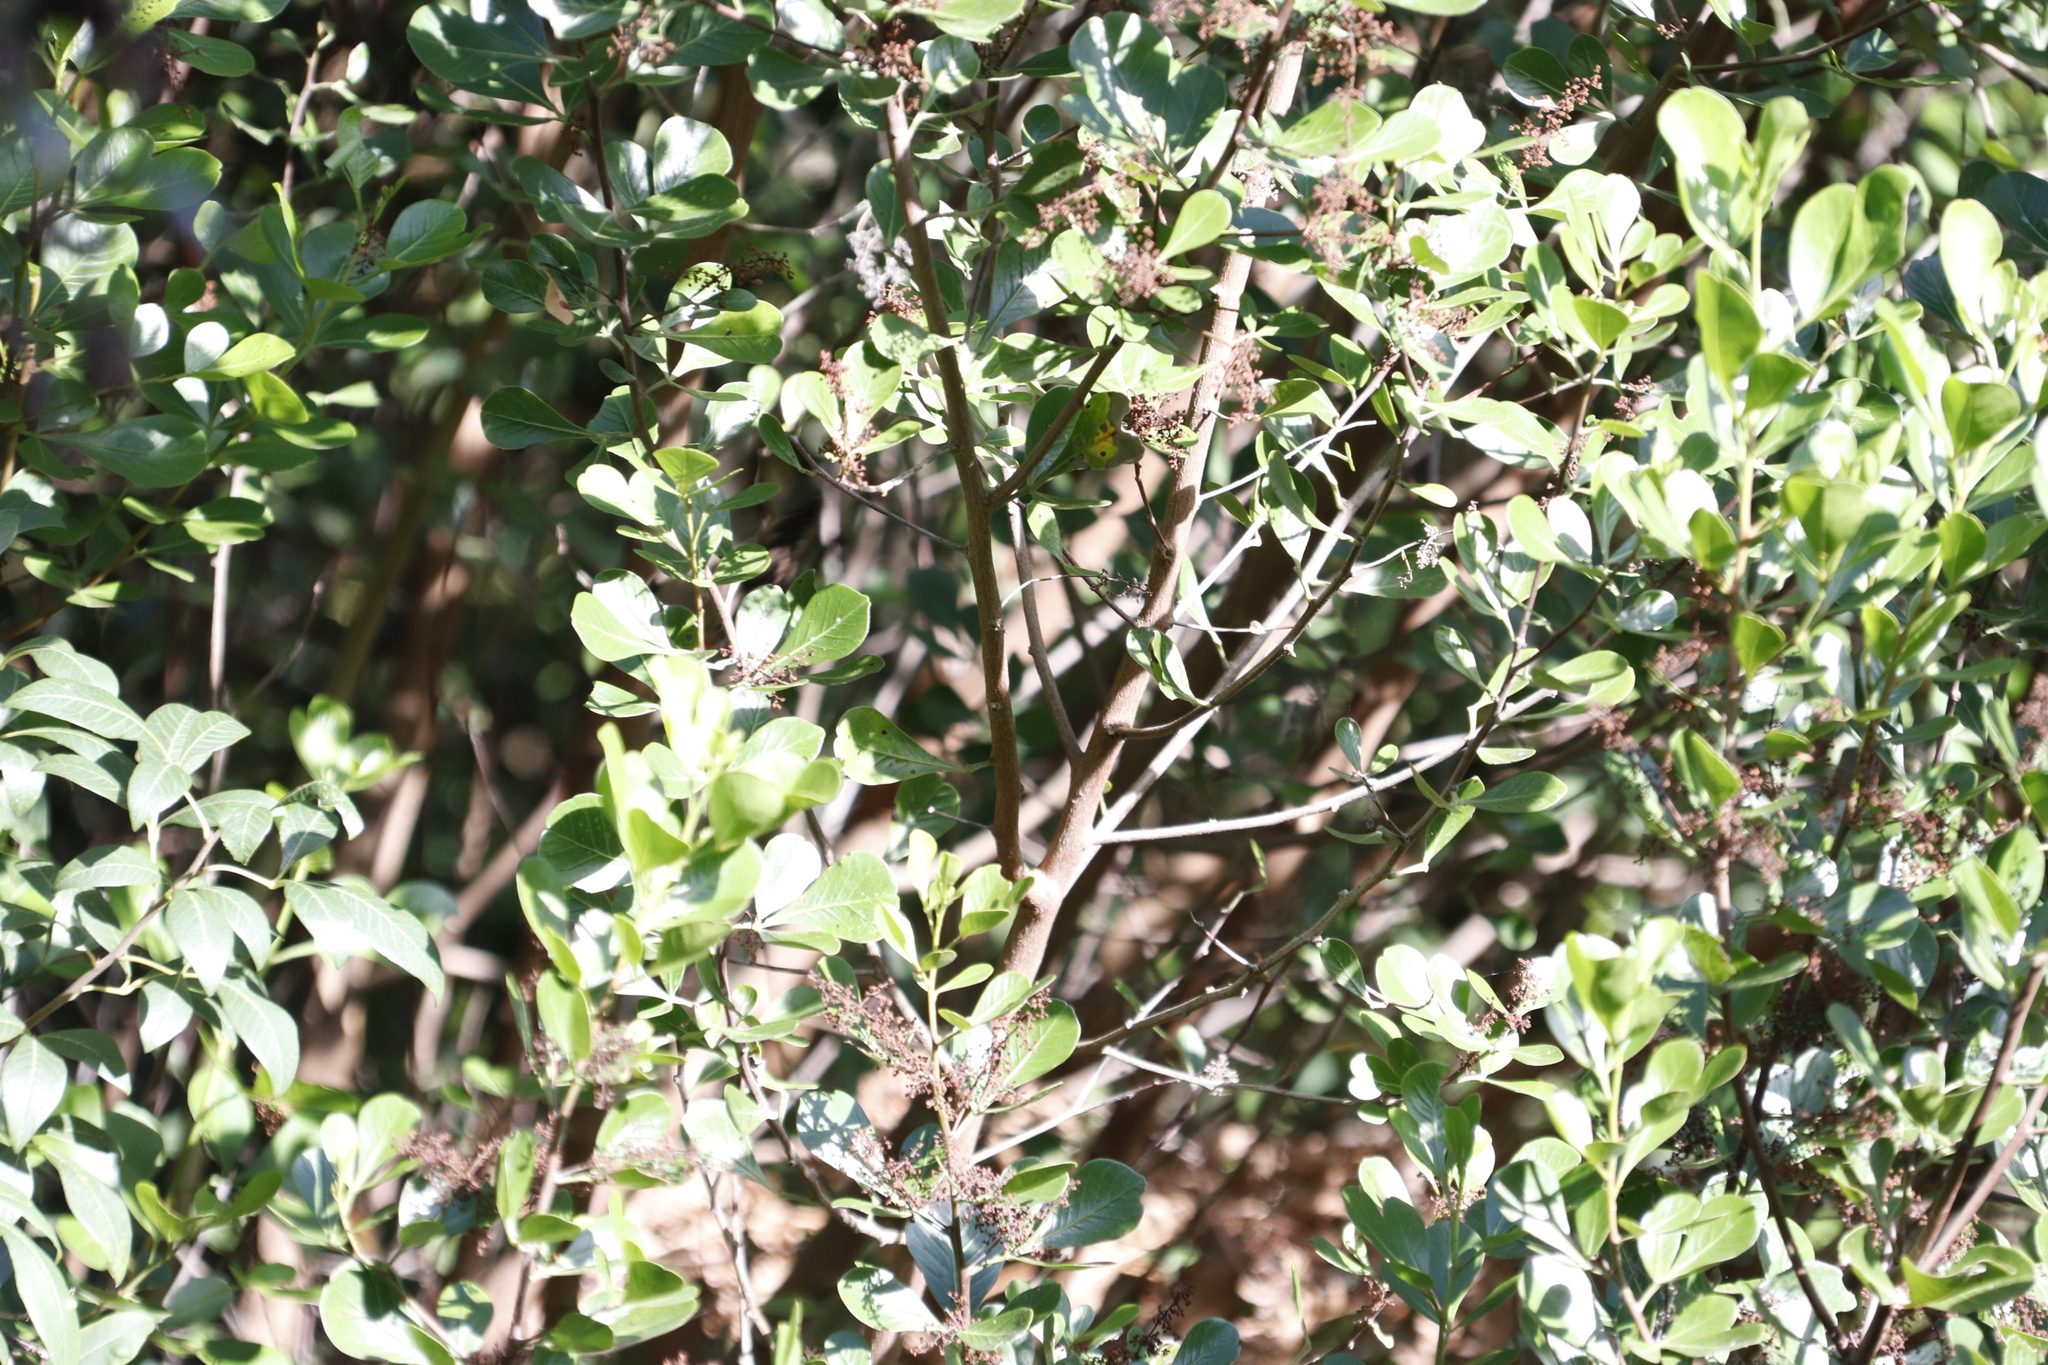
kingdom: Plantae
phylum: Tracheophyta
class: Magnoliopsida
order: Sapindales
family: Anacardiaceae
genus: Searsia
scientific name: Searsia lucida
